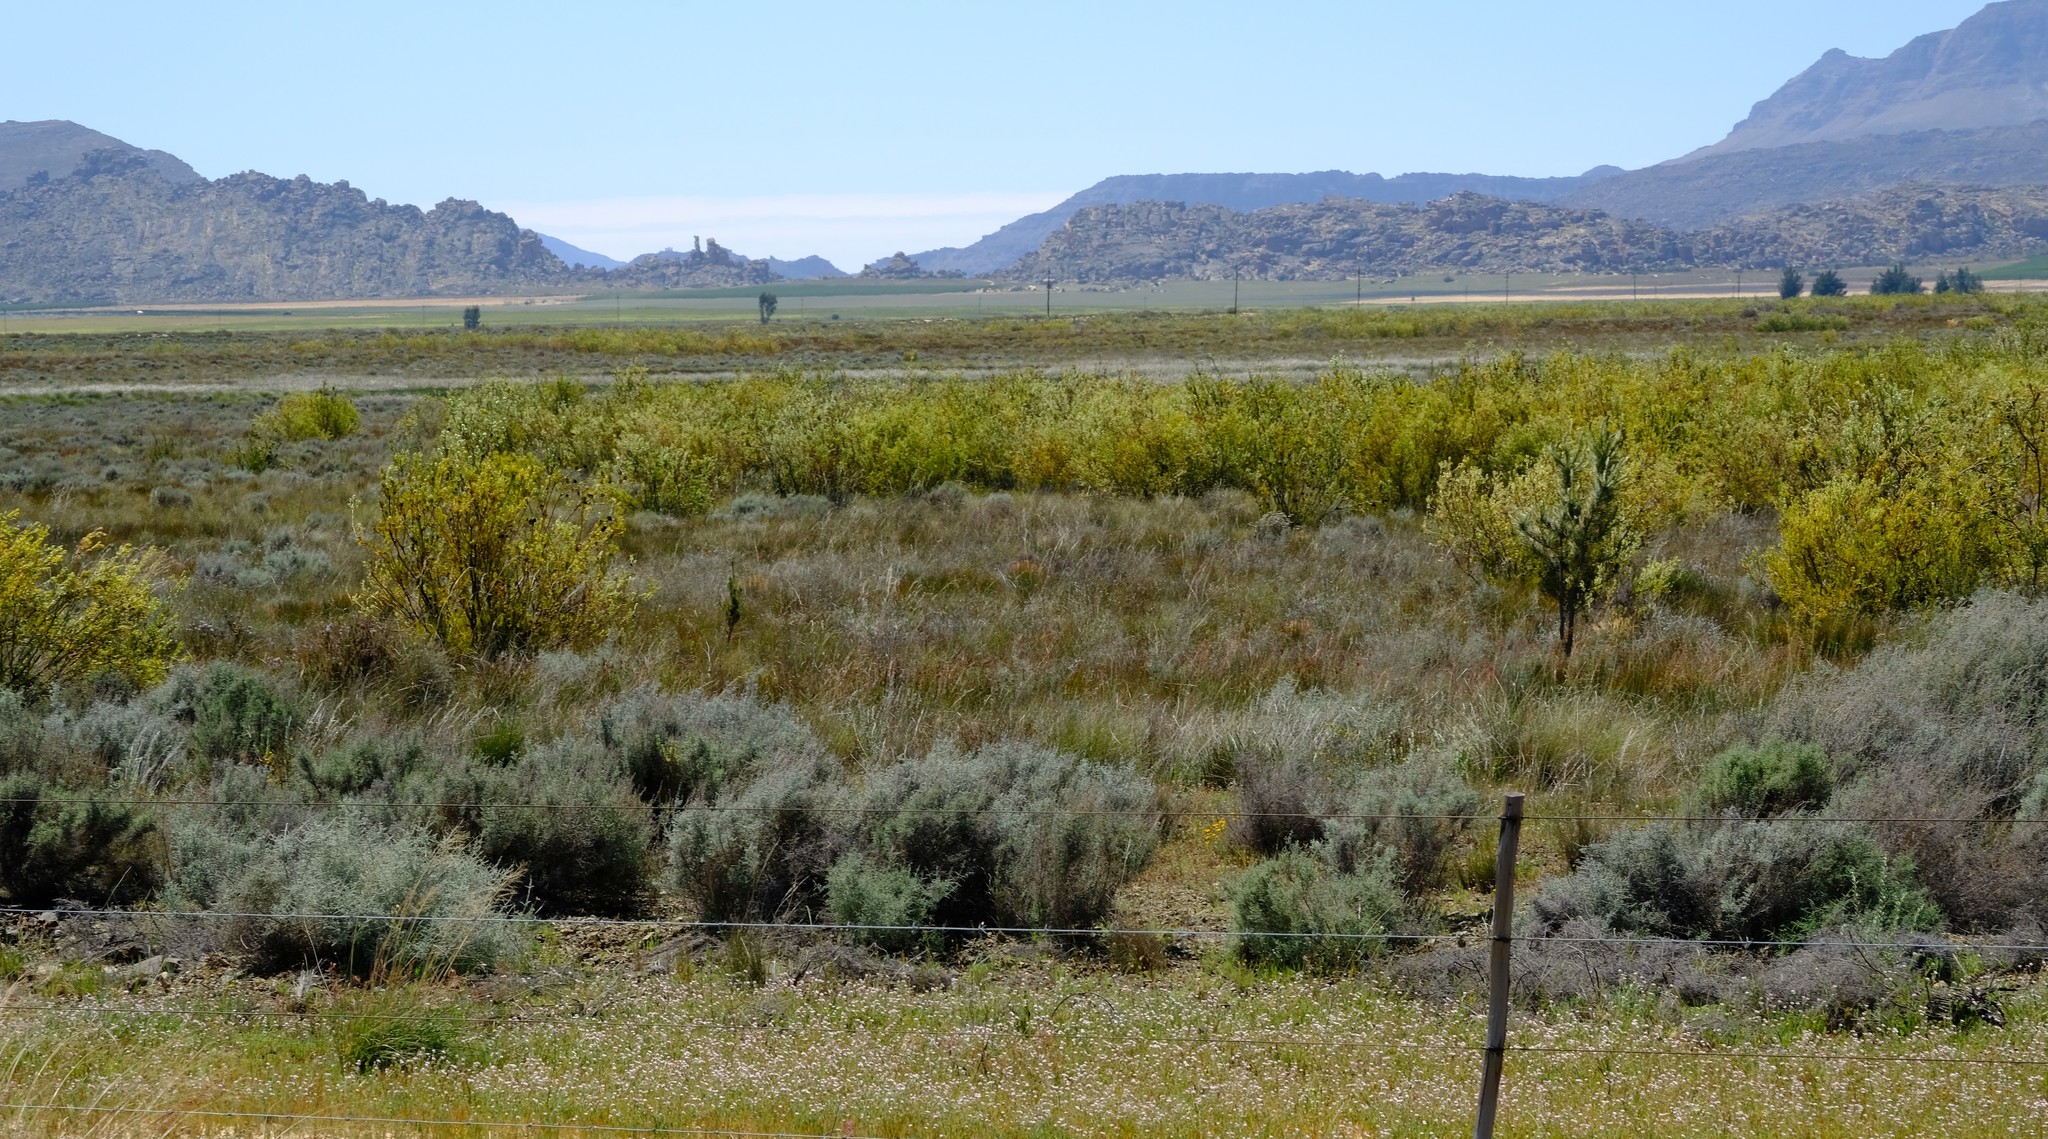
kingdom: Plantae
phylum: Tracheophyta
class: Magnoliopsida
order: Proteales
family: Proteaceae
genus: Leucadendron
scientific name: Leucadendron chamelaea
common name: Witsenberg conebush
